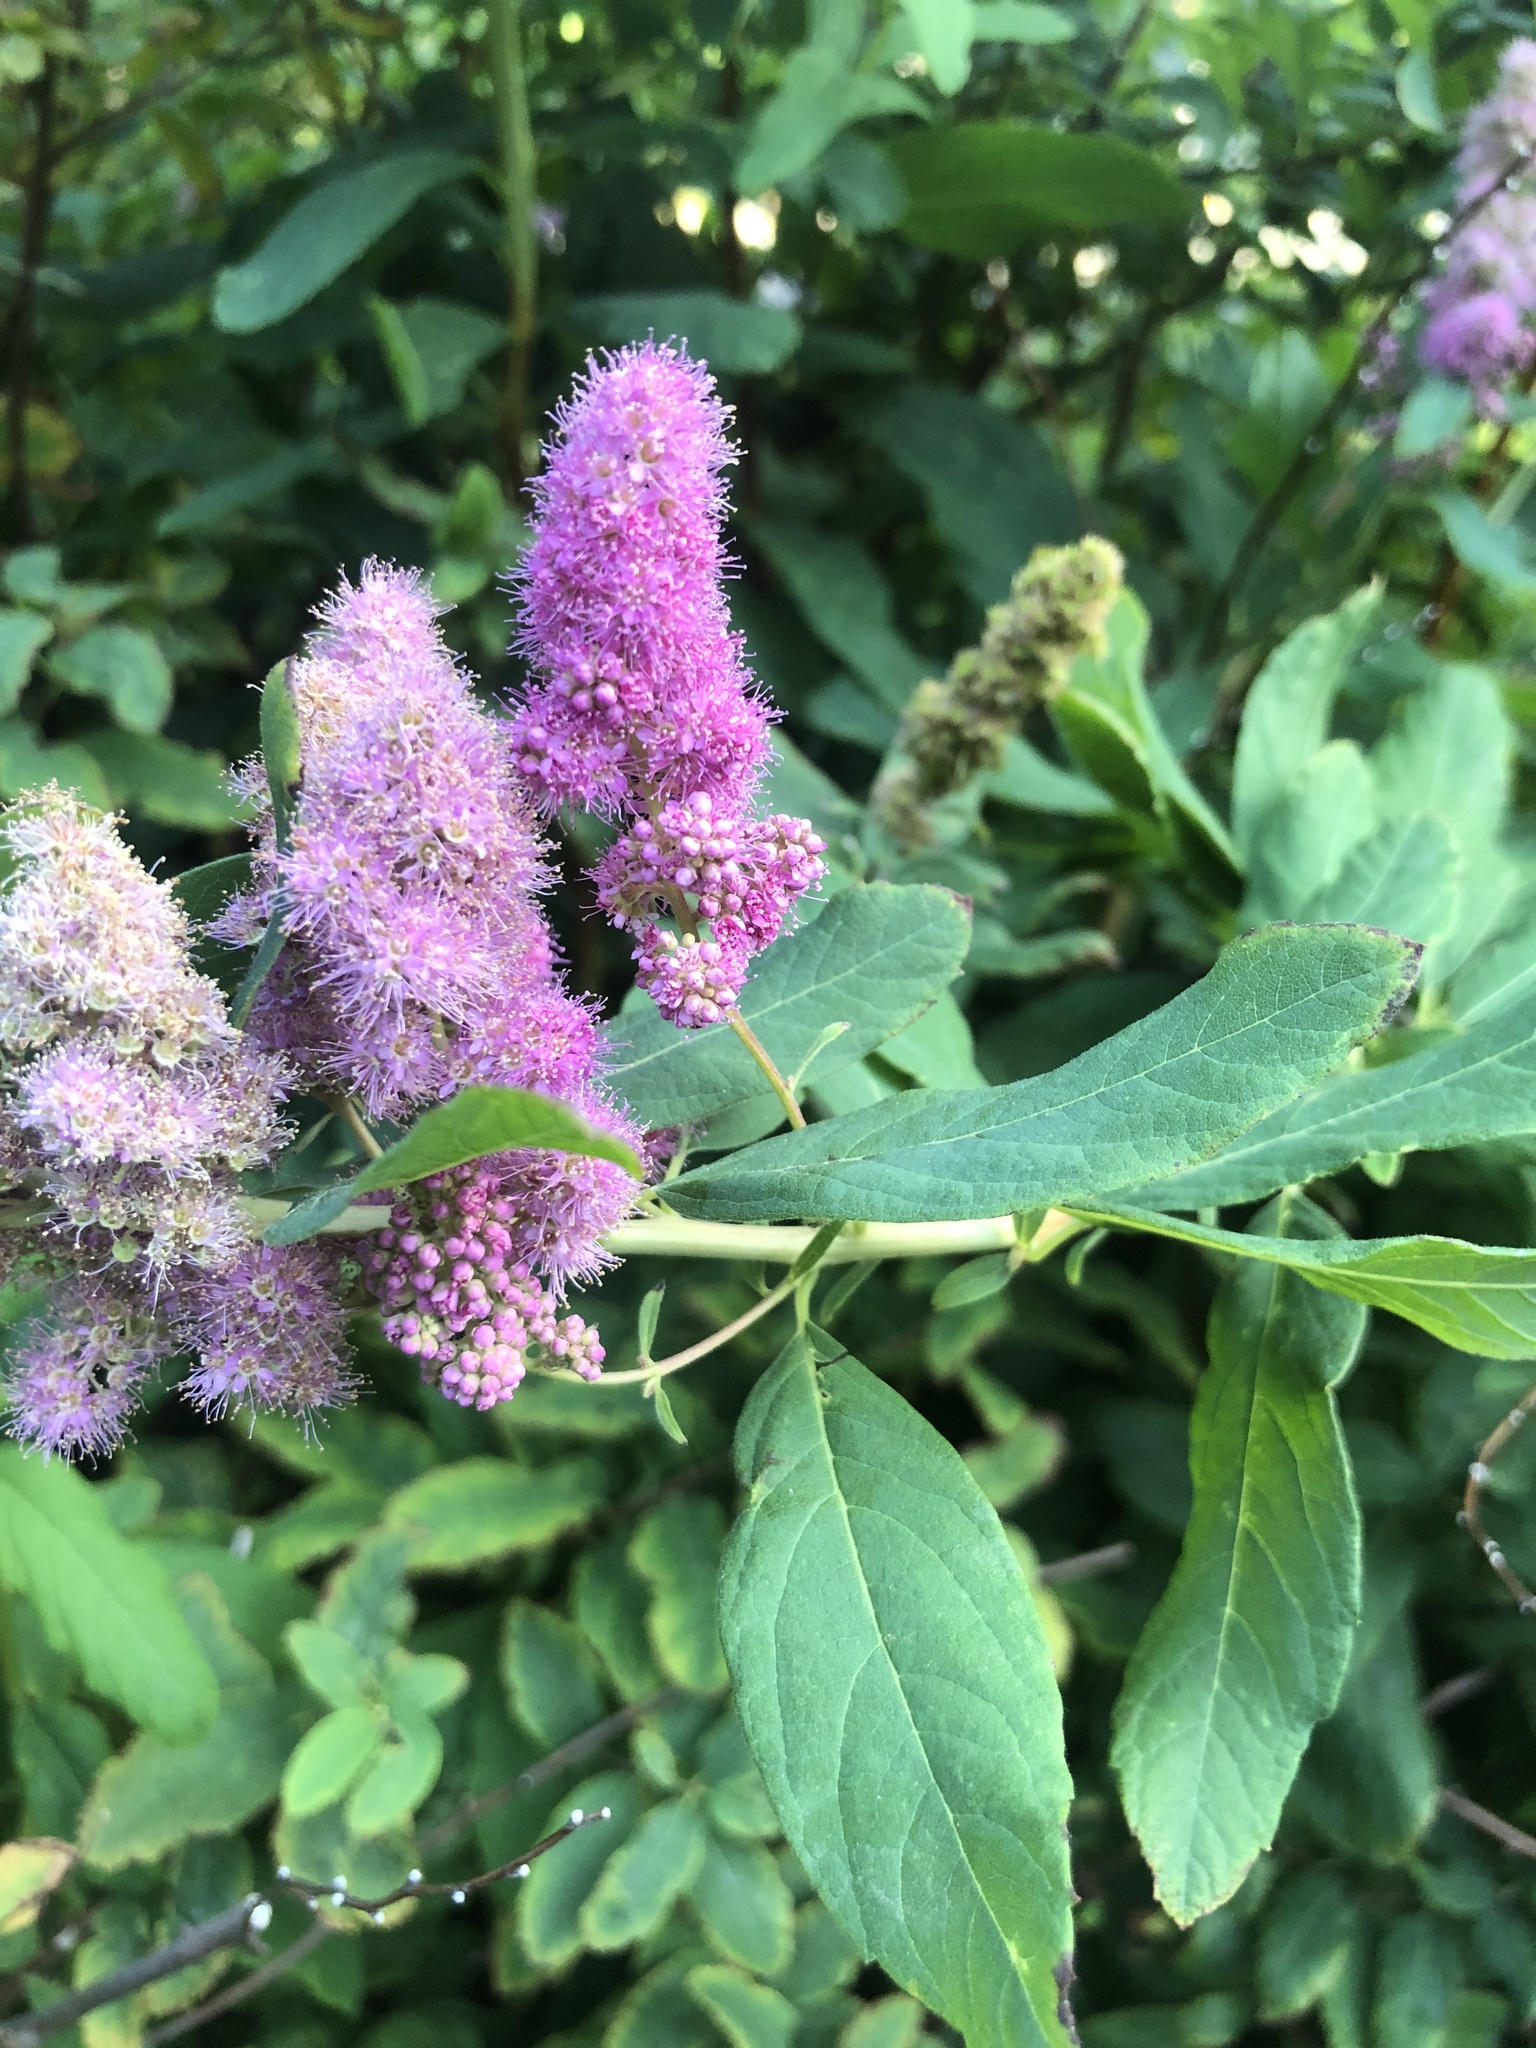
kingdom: Plantae
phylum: Tracheophyta
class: Magnoliopsida
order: Rosales
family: Rosaceae
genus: Spiraea
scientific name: Spiraea douglasii
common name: Steeplebush
